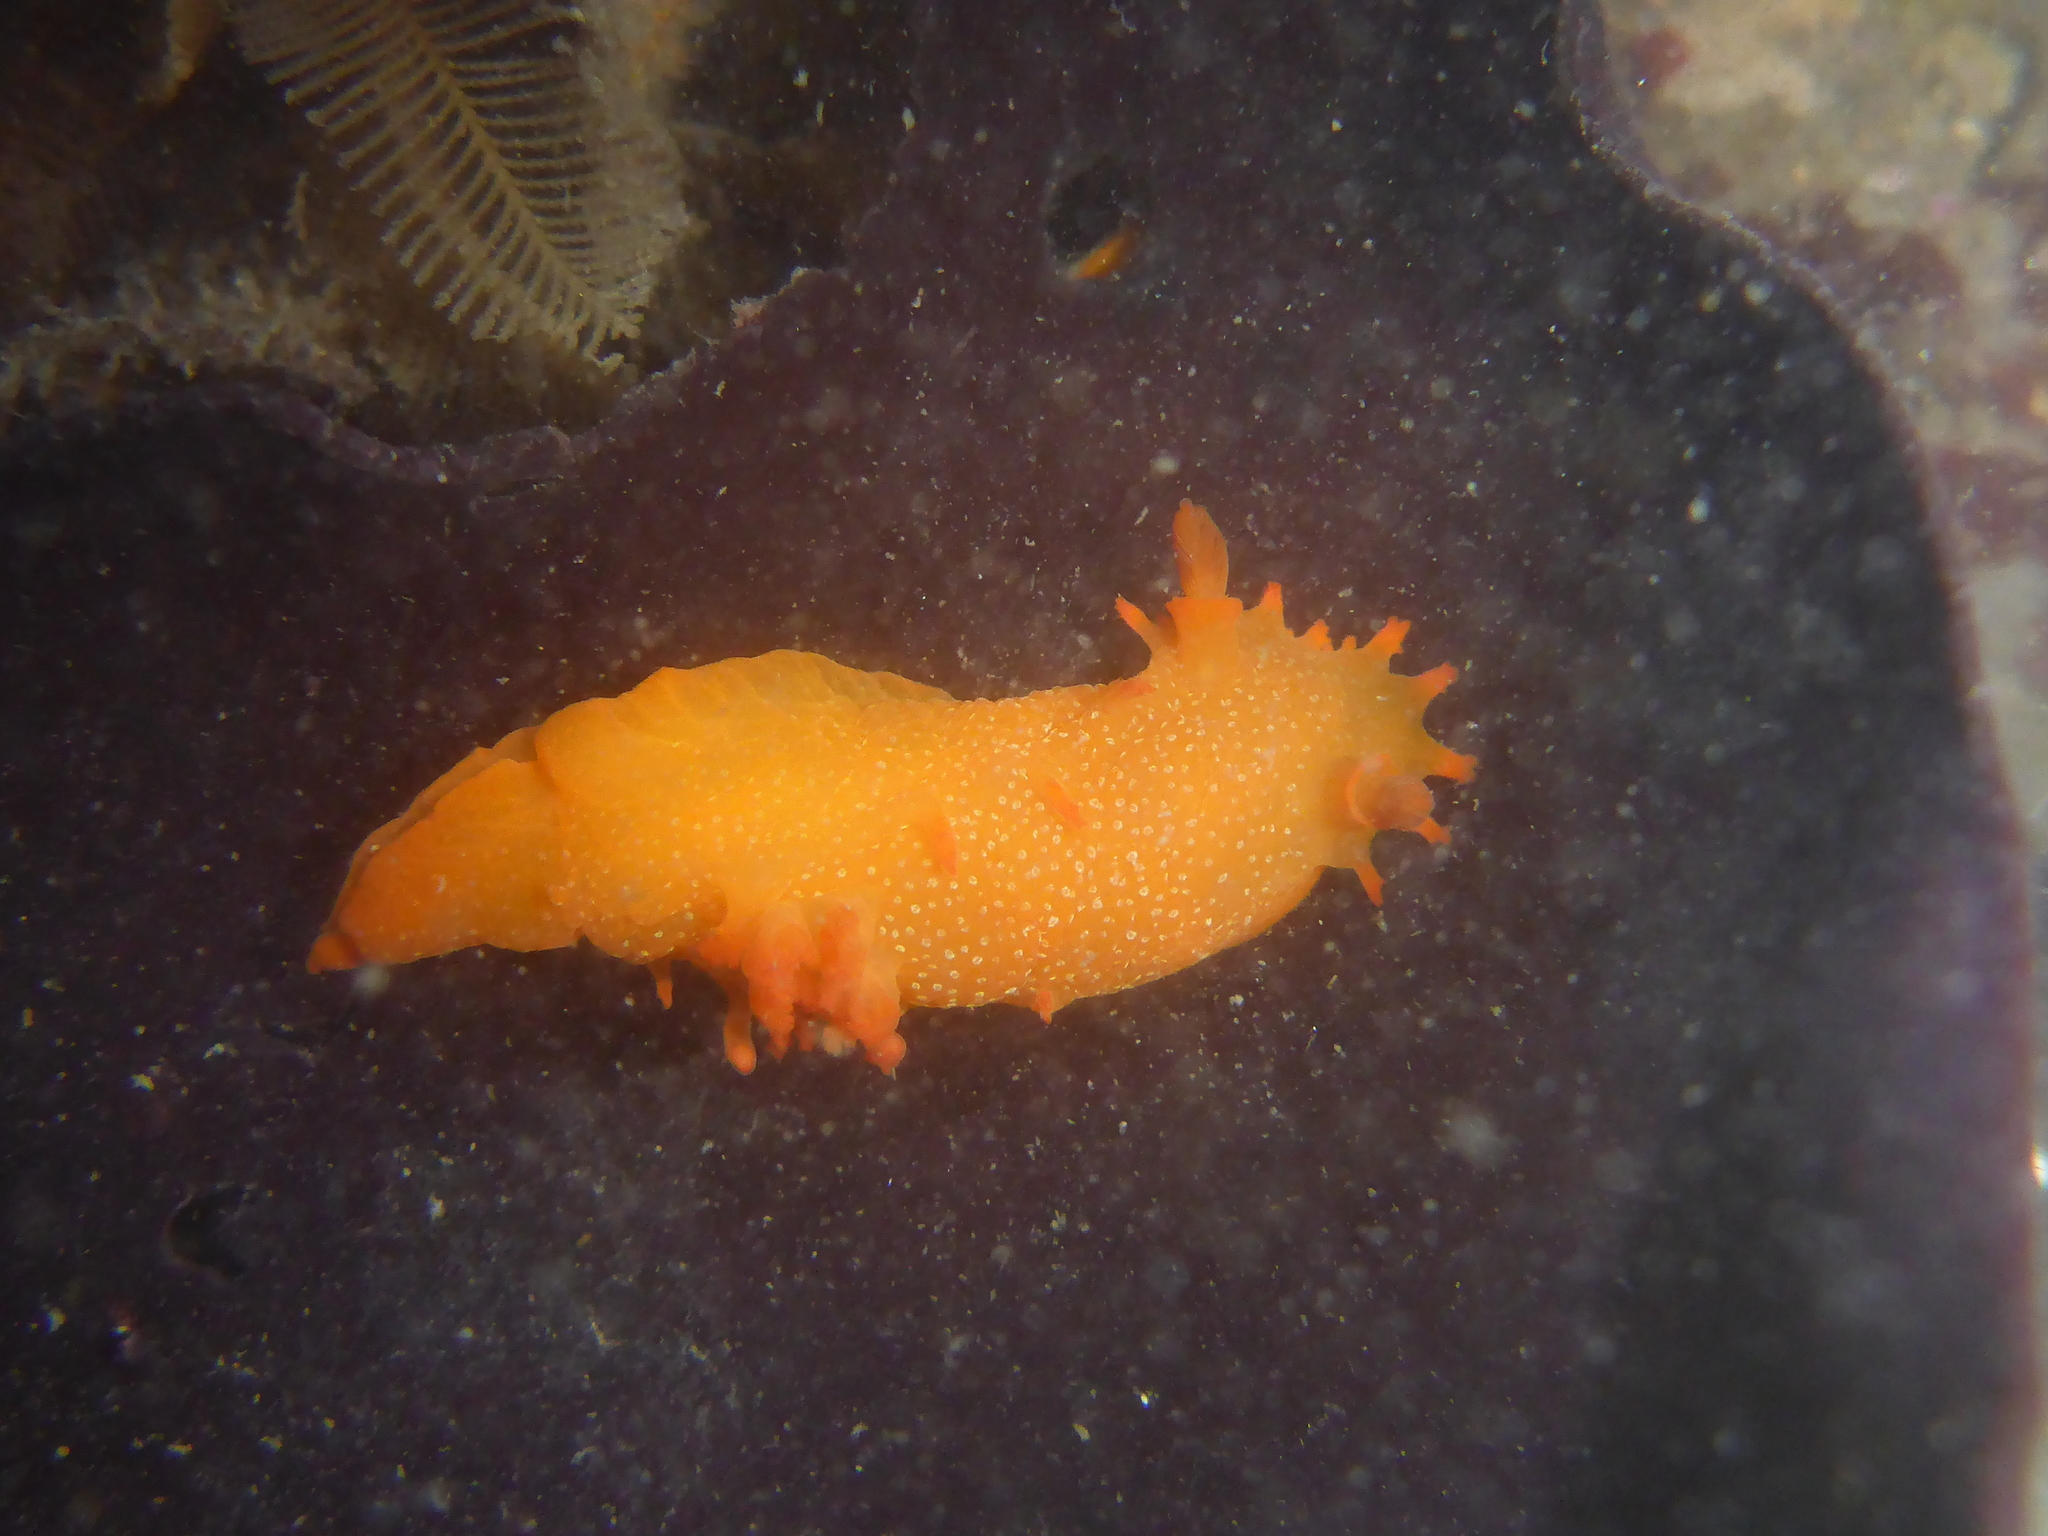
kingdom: Animalia
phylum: Mollusca
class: Gastropoda
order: Nudibranchia
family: Polyceridae
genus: Triopha
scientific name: Triopha maculata
